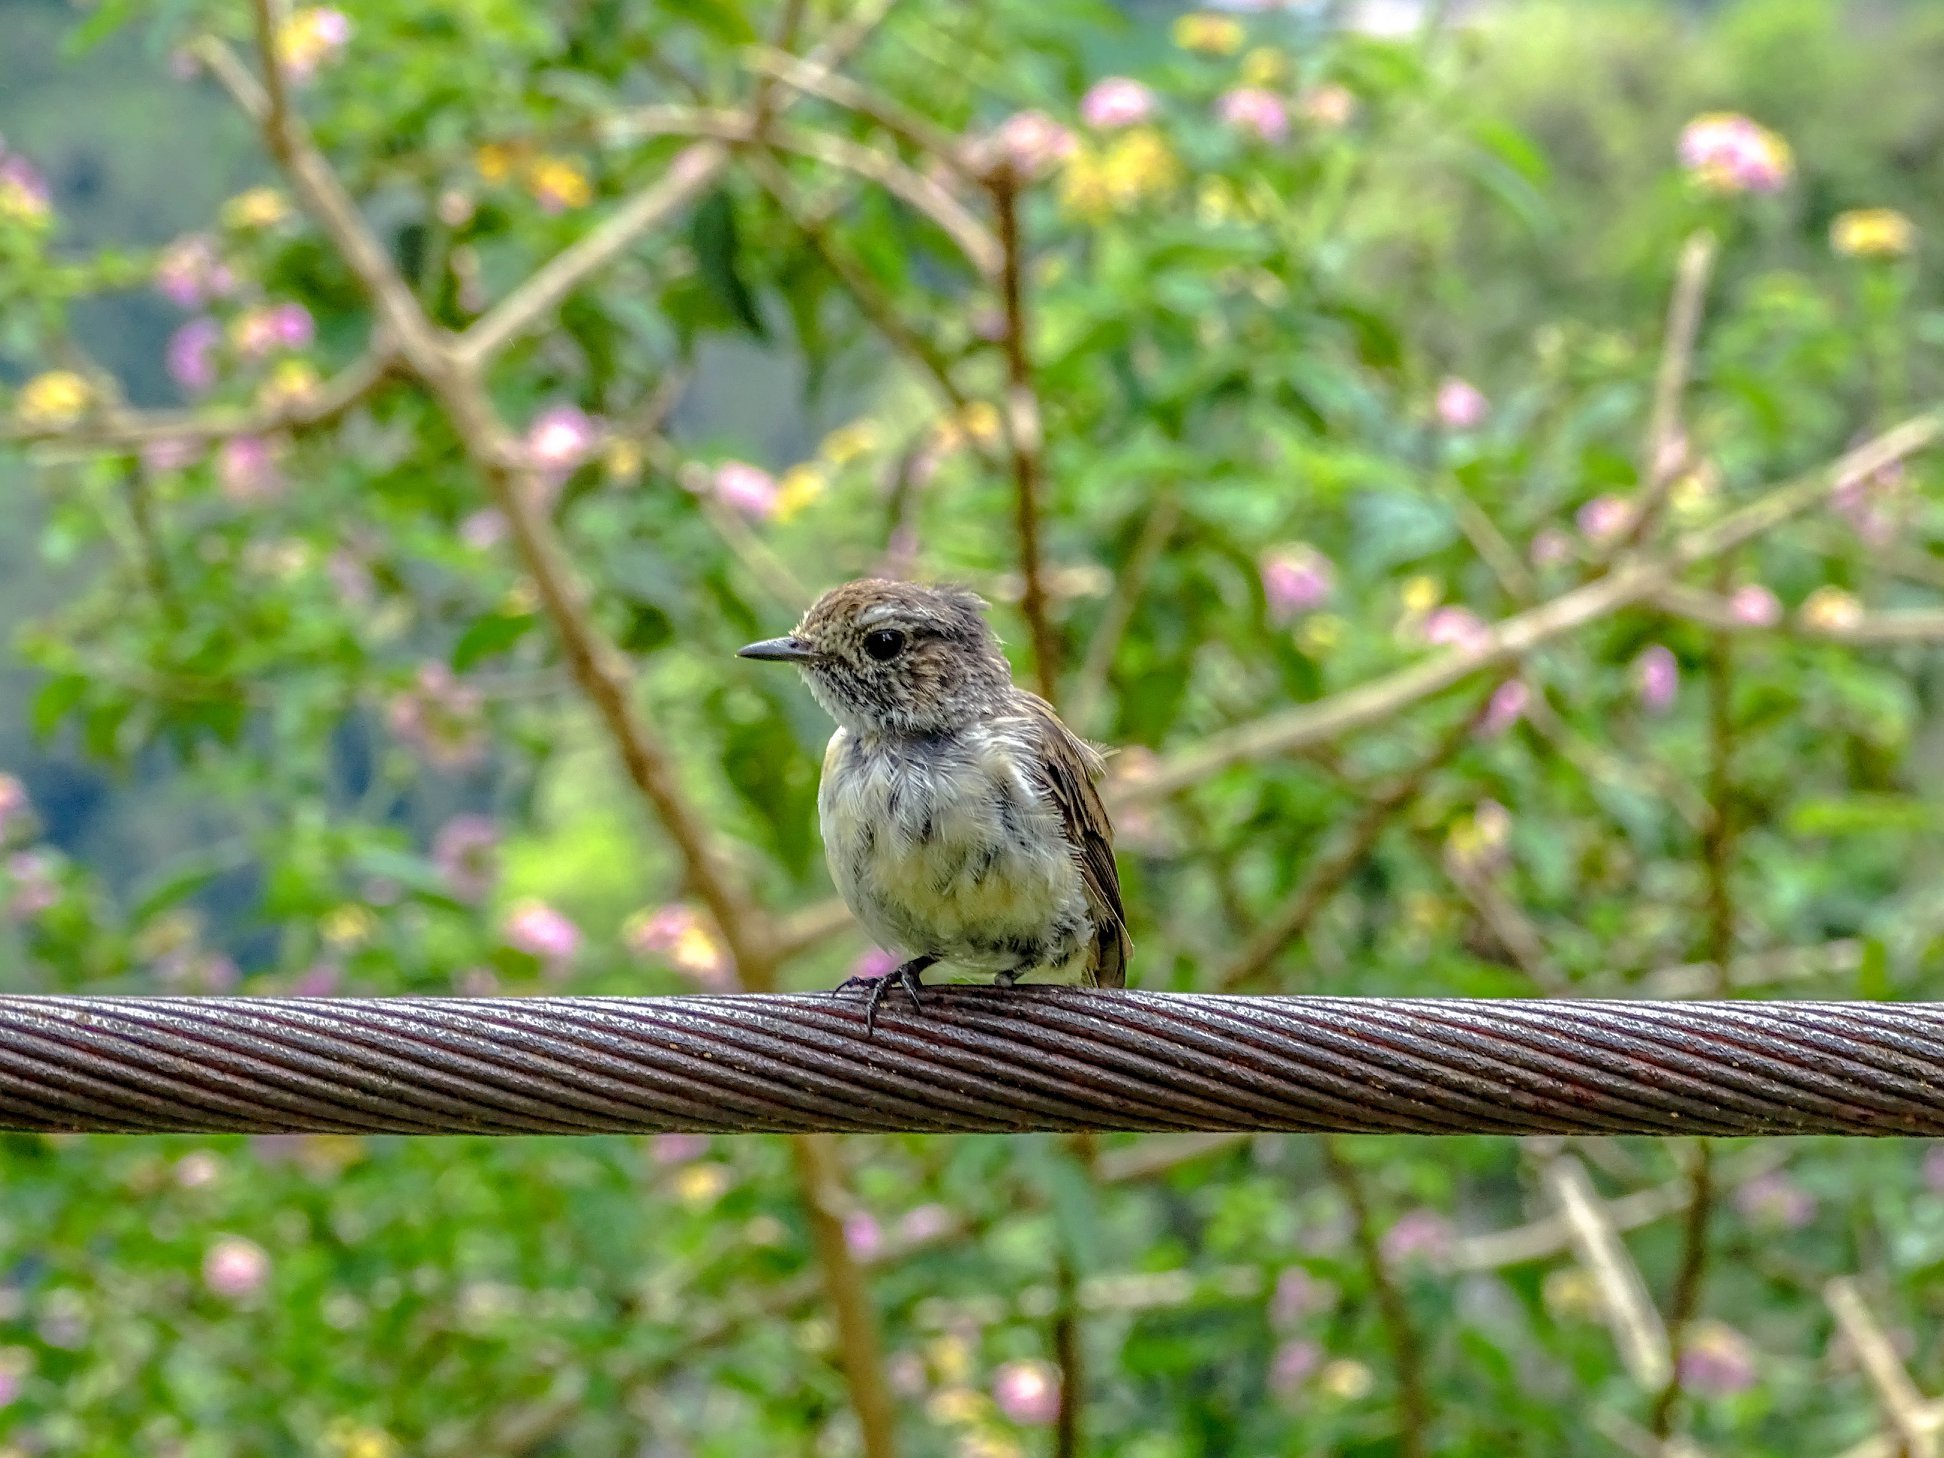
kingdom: Animalia
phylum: Chordata
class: Aves
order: Passeriformes
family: Muscicapidae
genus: Saxicola
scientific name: Saxicola tectes
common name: Reunion stonechat
